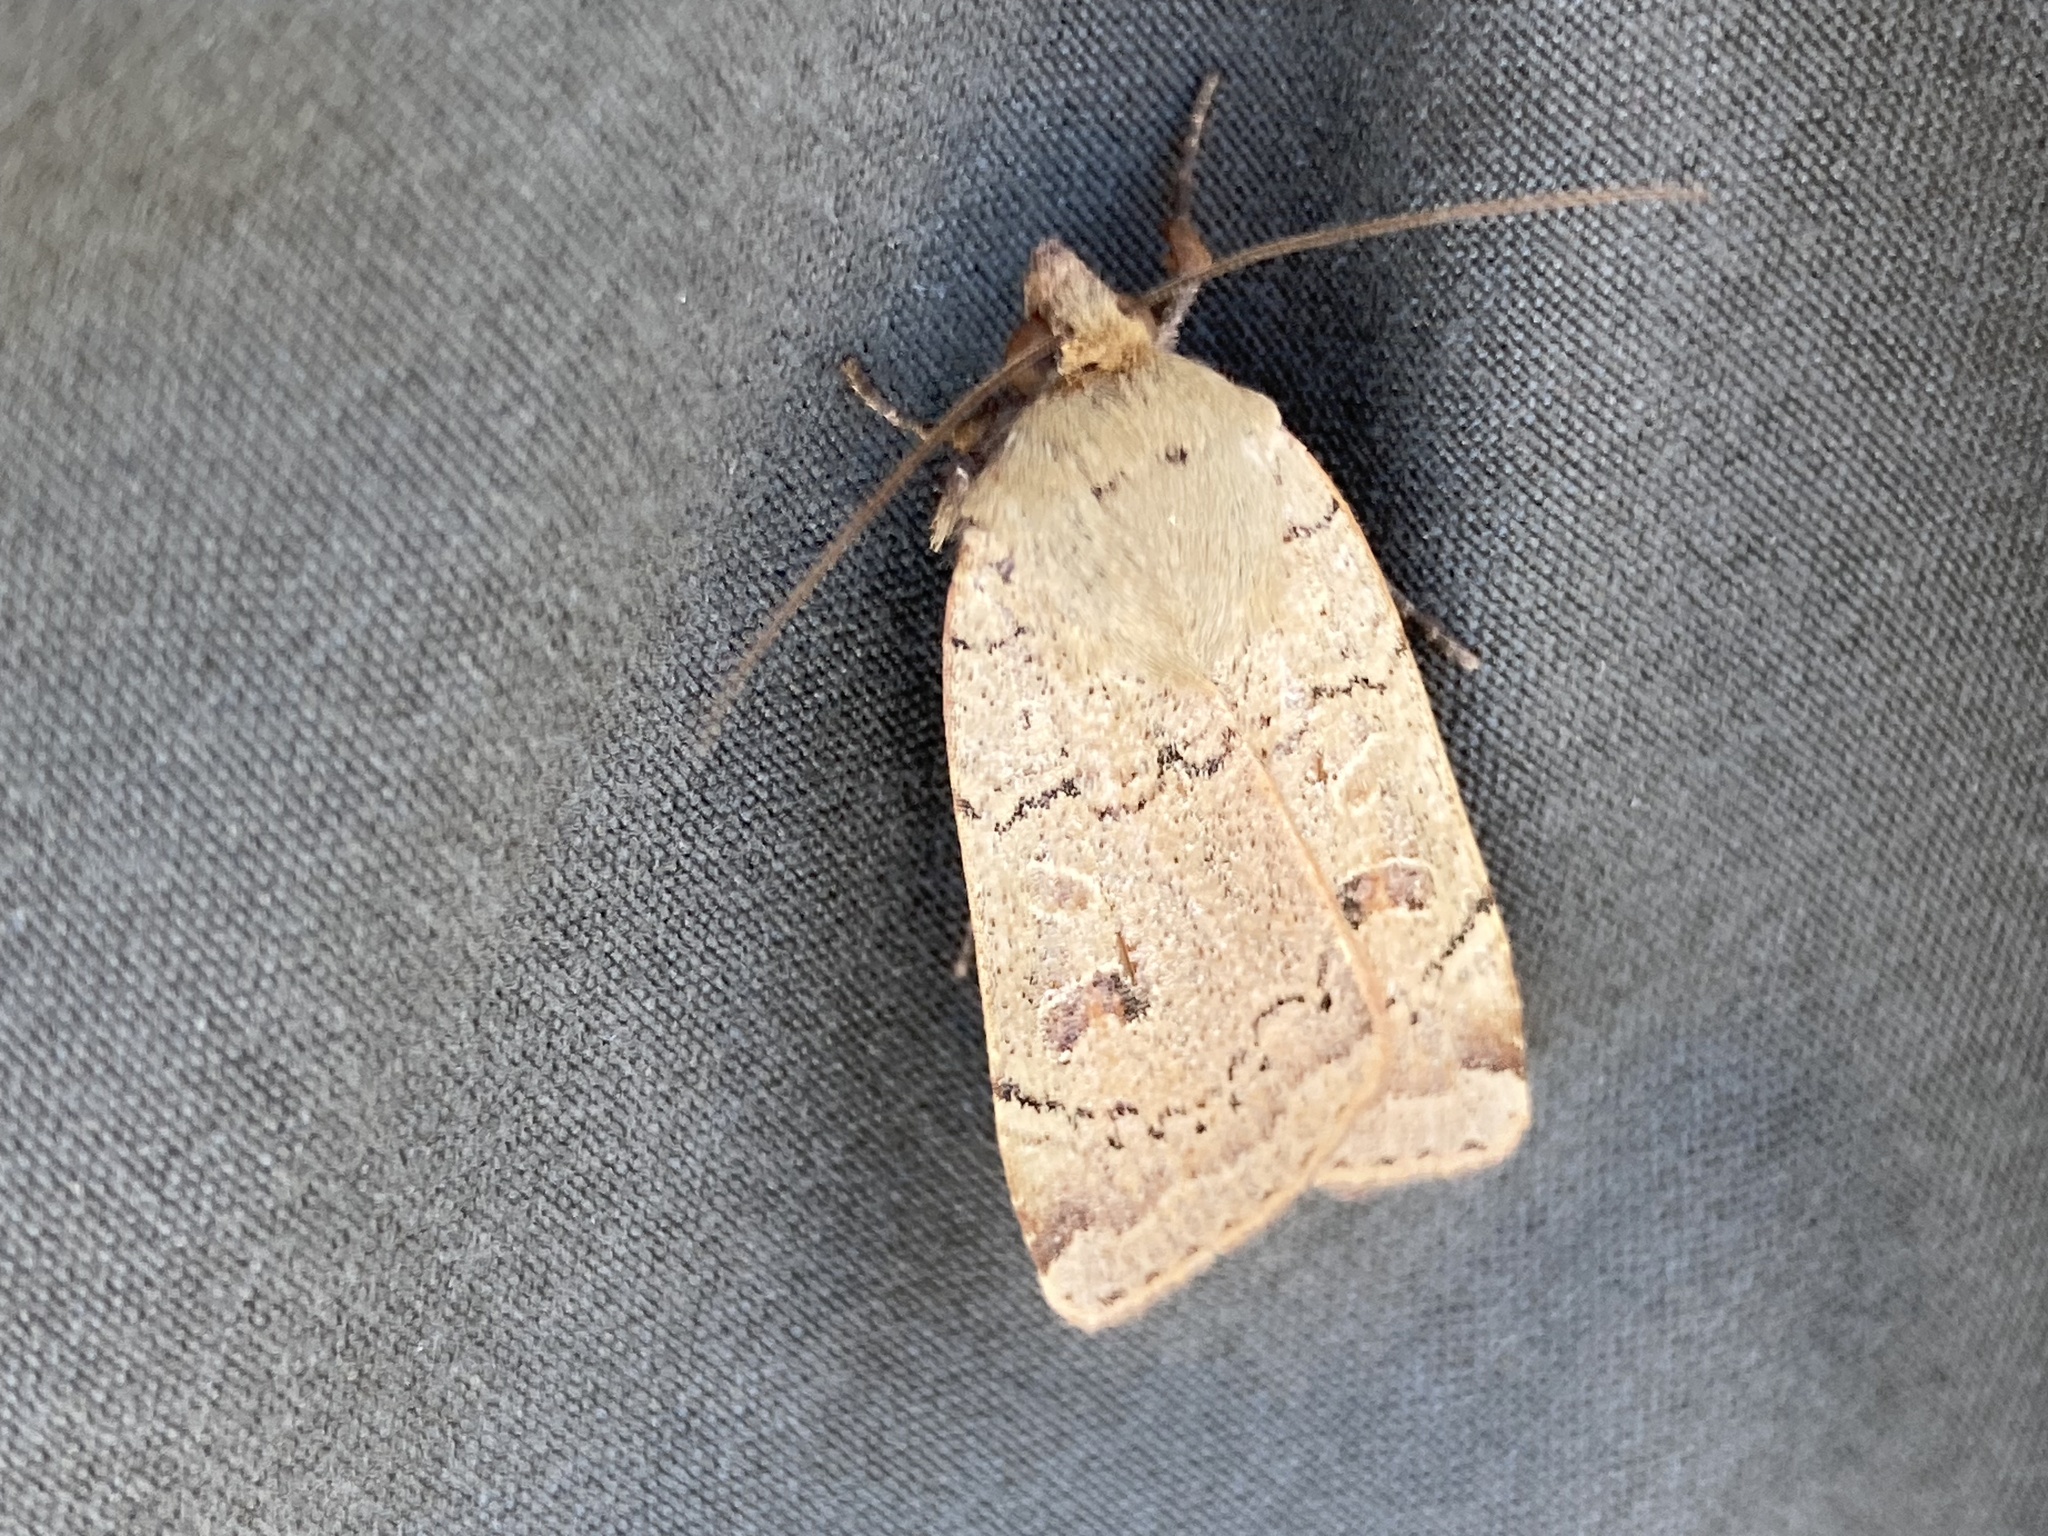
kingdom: Animalia
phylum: Arthropoda
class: Insecta
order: Lepidoptera
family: Noctuidae
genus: Noctua
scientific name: Noctua comes
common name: Lesser yellow underwing
